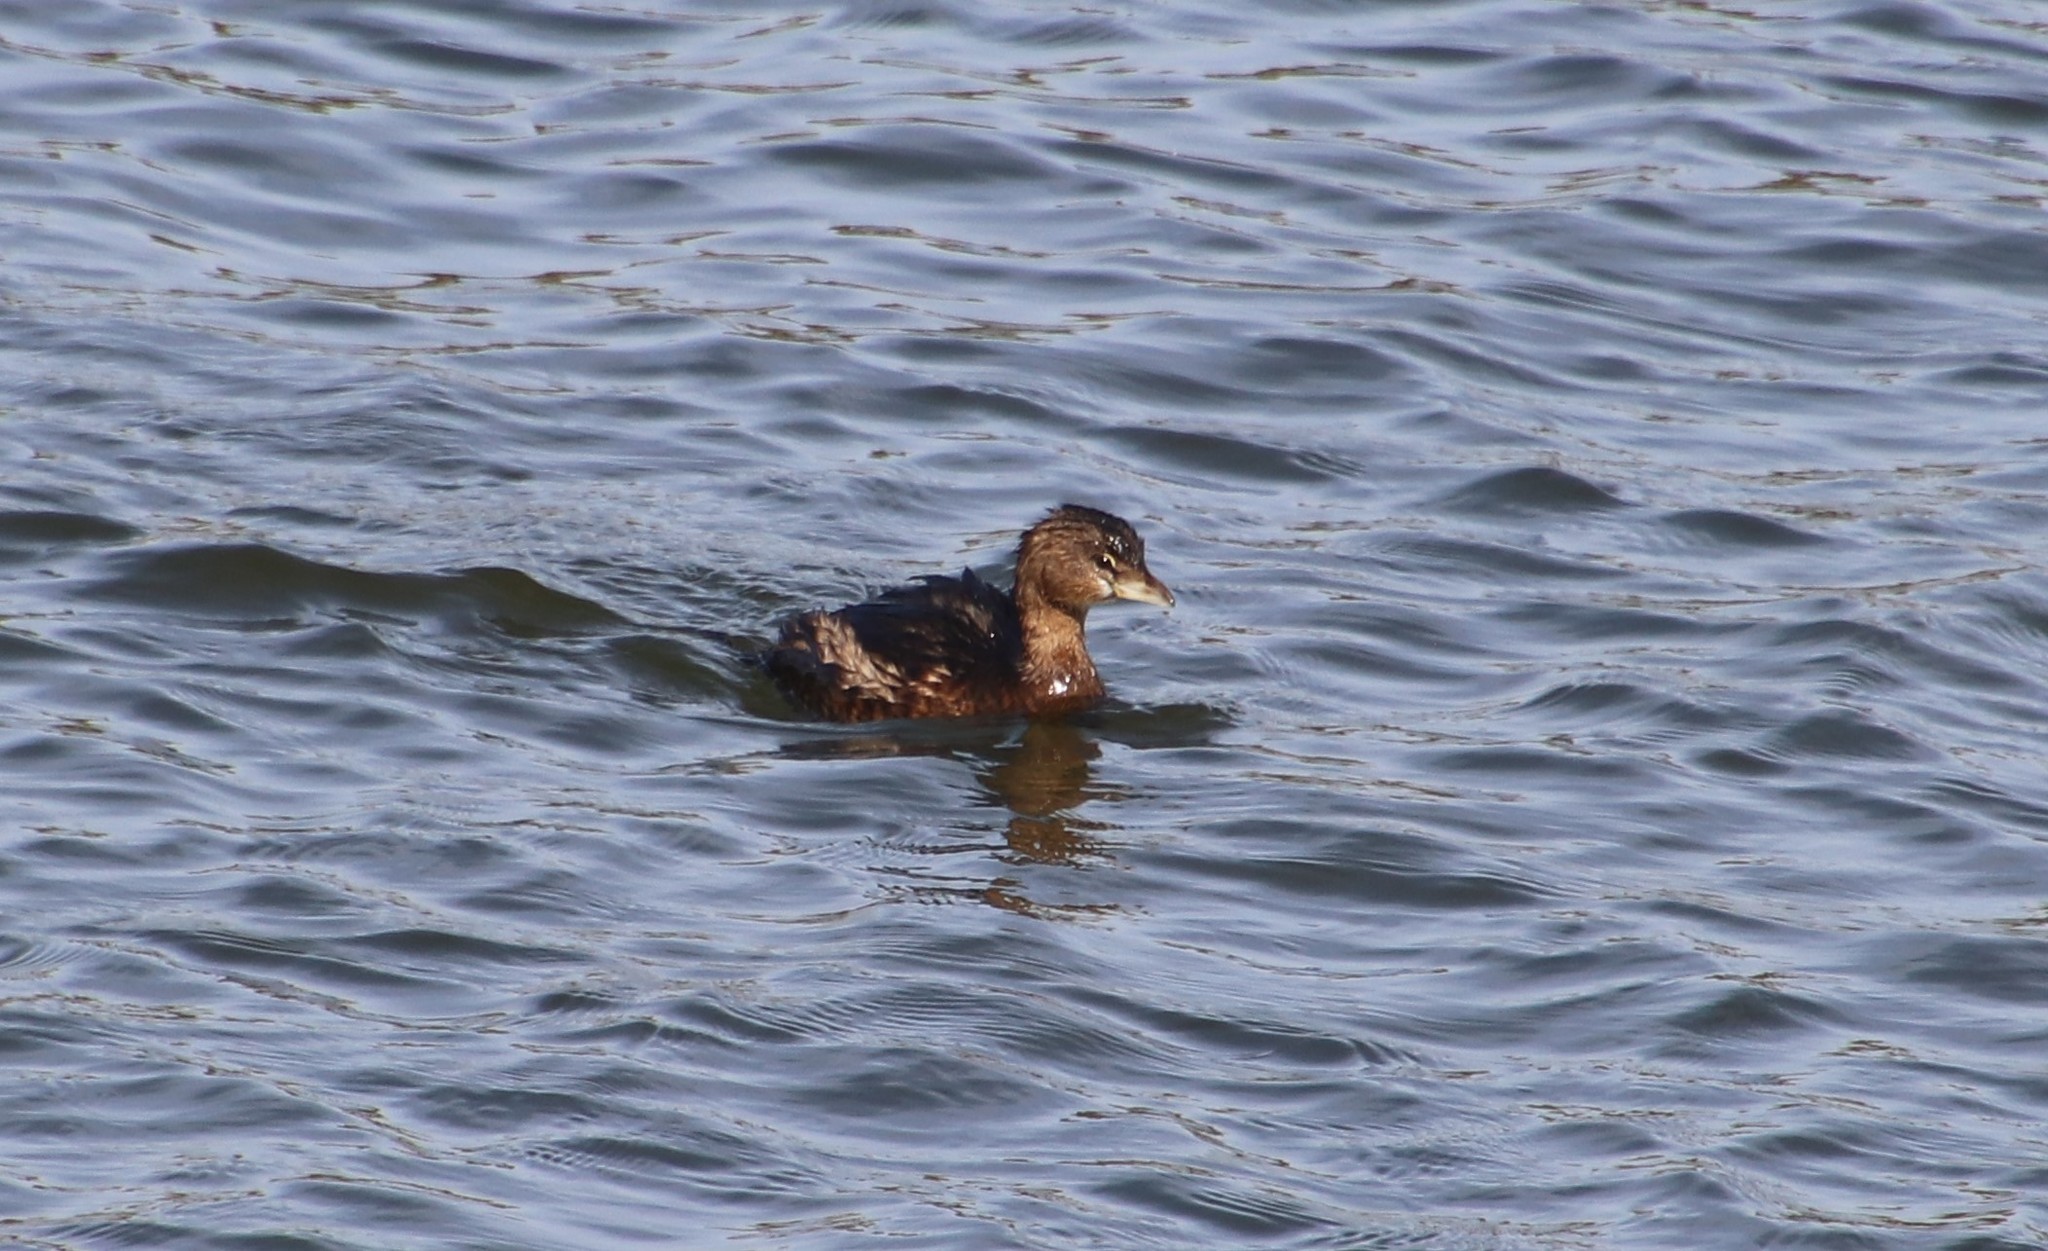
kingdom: Animalia
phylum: Chordata
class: Aves
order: Podicipediformes
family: Podicipedidae
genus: Podilymbus
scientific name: Podilymbus podiceps
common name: Pied-billed grebe
